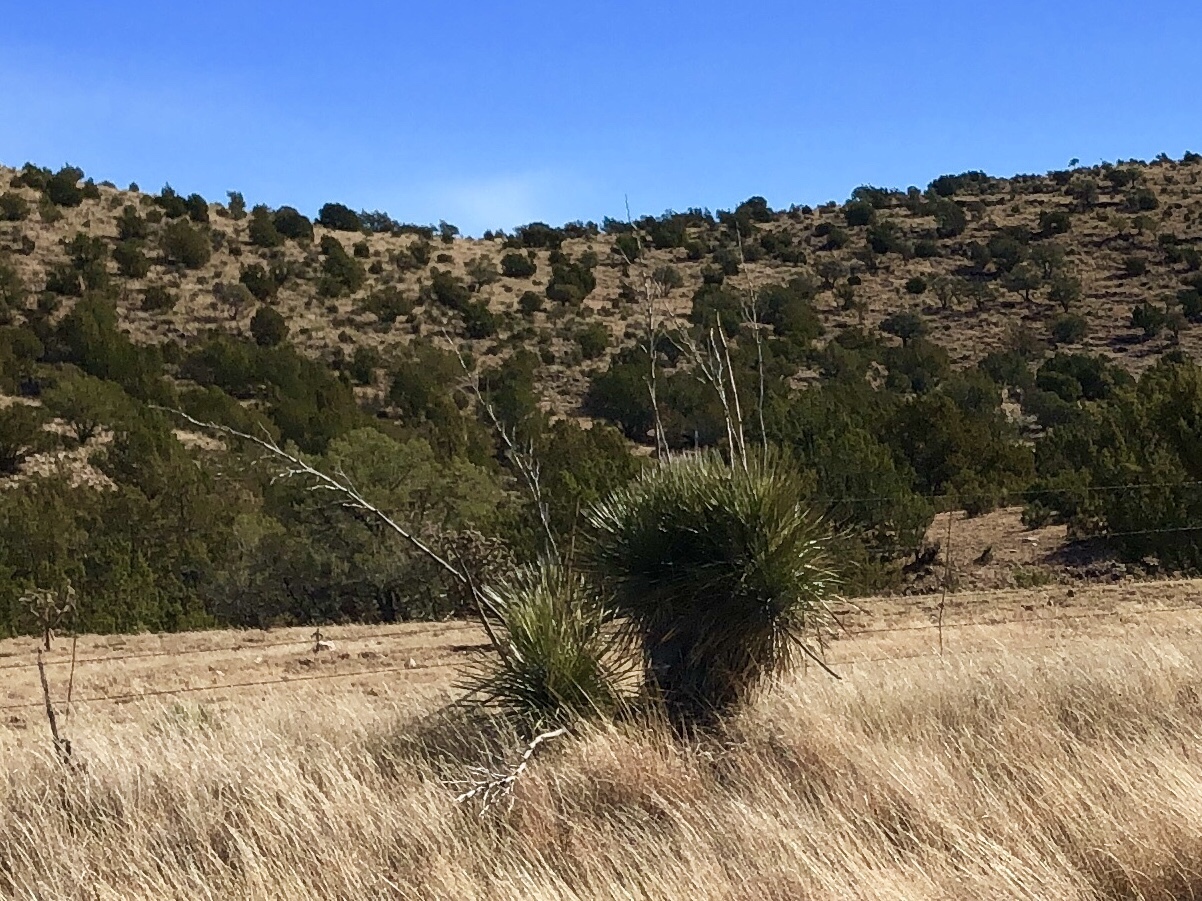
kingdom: Plantae
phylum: Tracheophyta
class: Liliopsida
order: Asparagales
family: Asparagaceae
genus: Yucca
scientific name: Yucca elata
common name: Palmella
